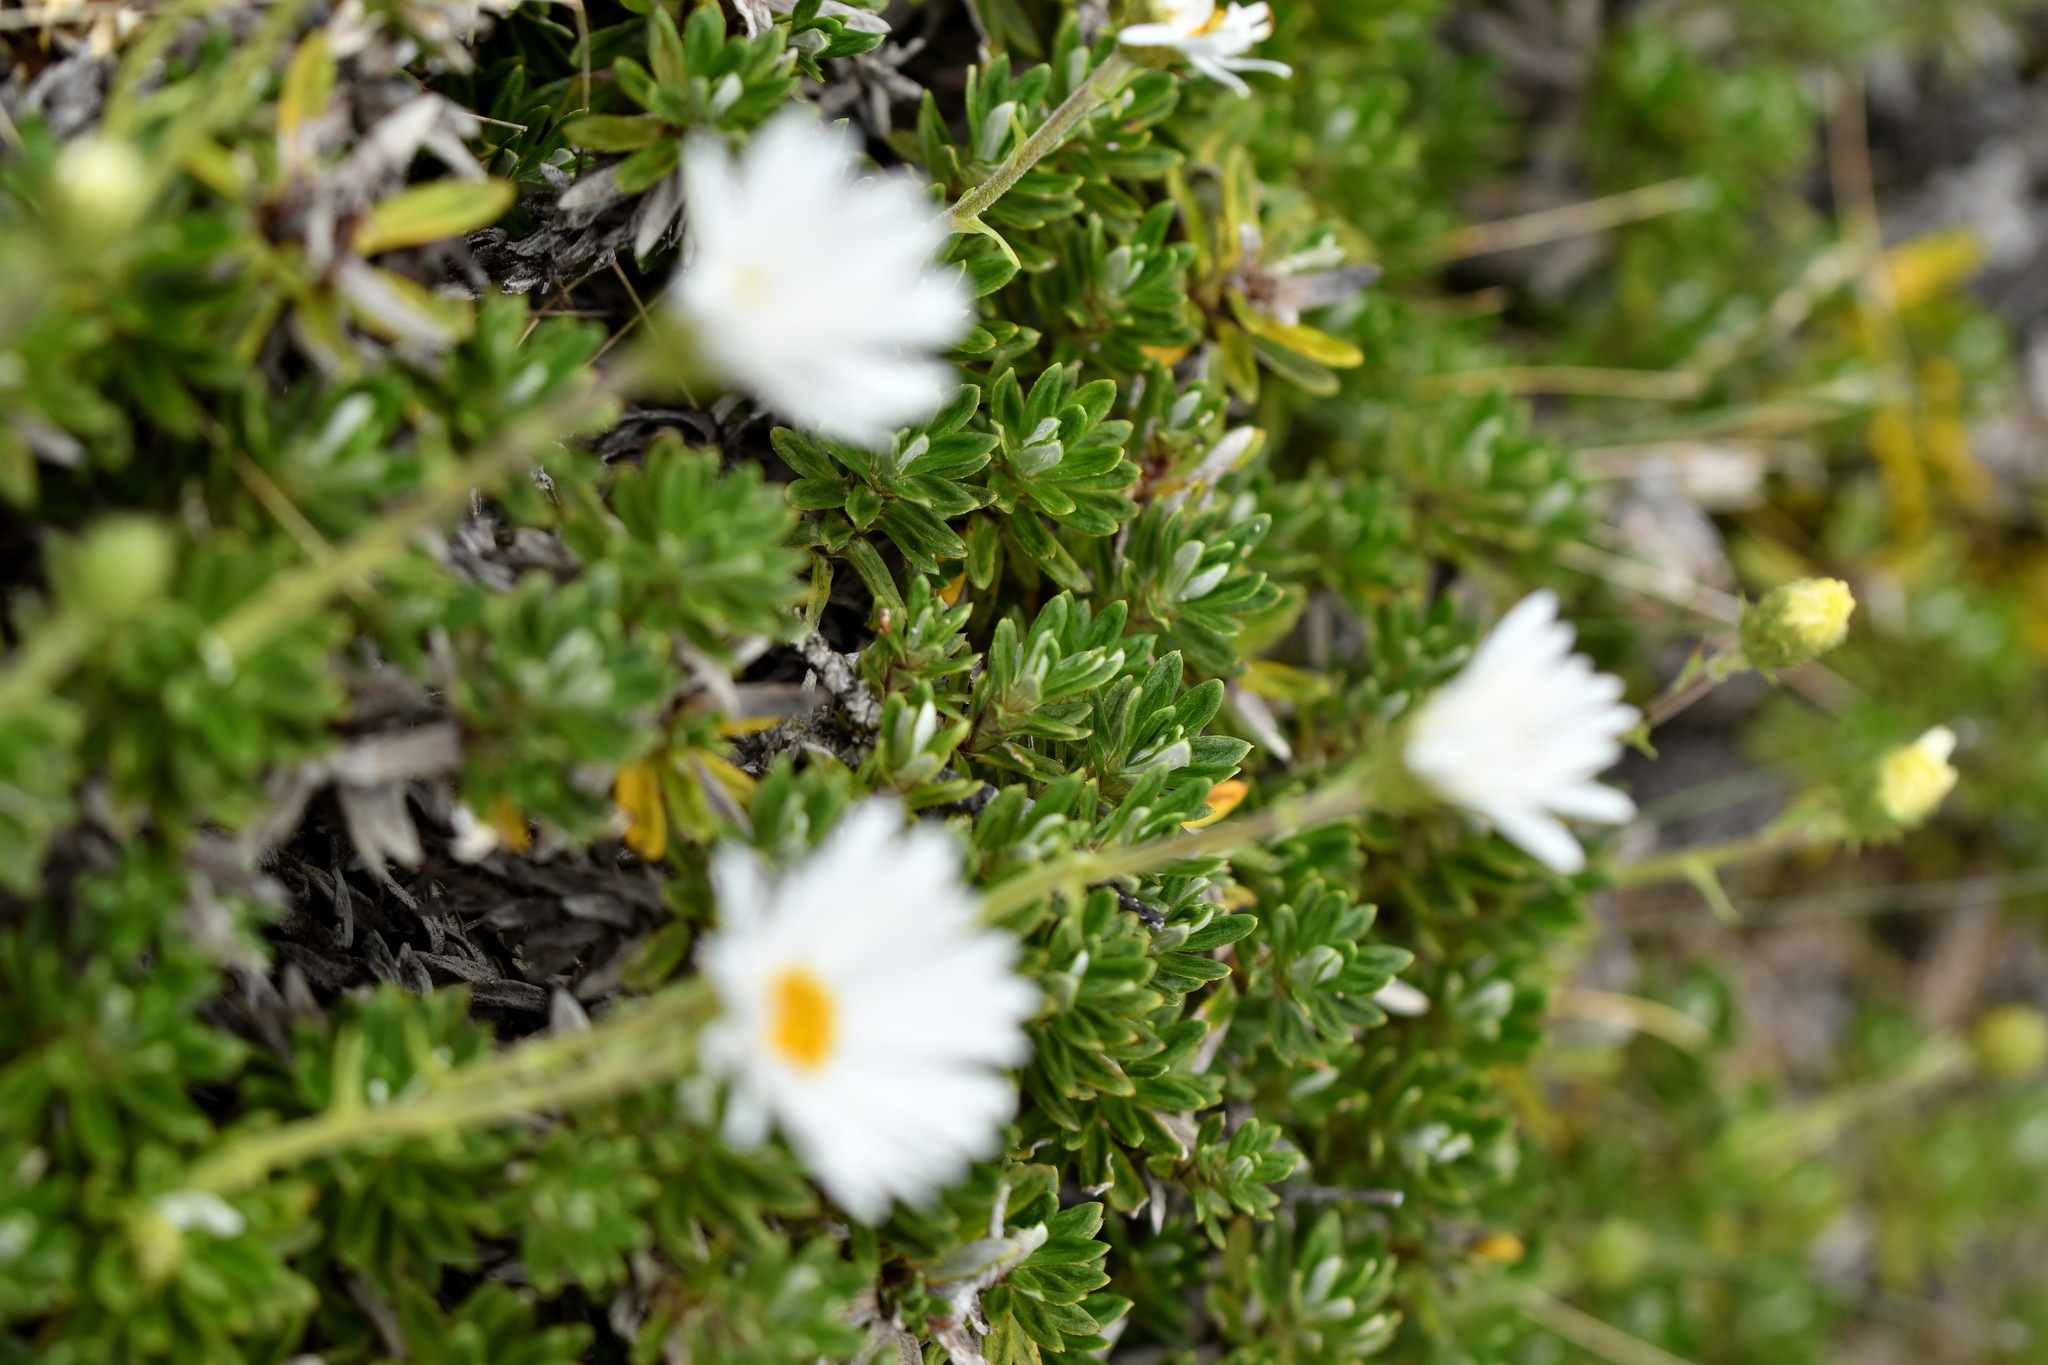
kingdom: Plantae
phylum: Tracheophyta
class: Magnoliopsida
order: Asterales
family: Asteraceae
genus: Celmisia
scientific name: Celmisia walkeri
